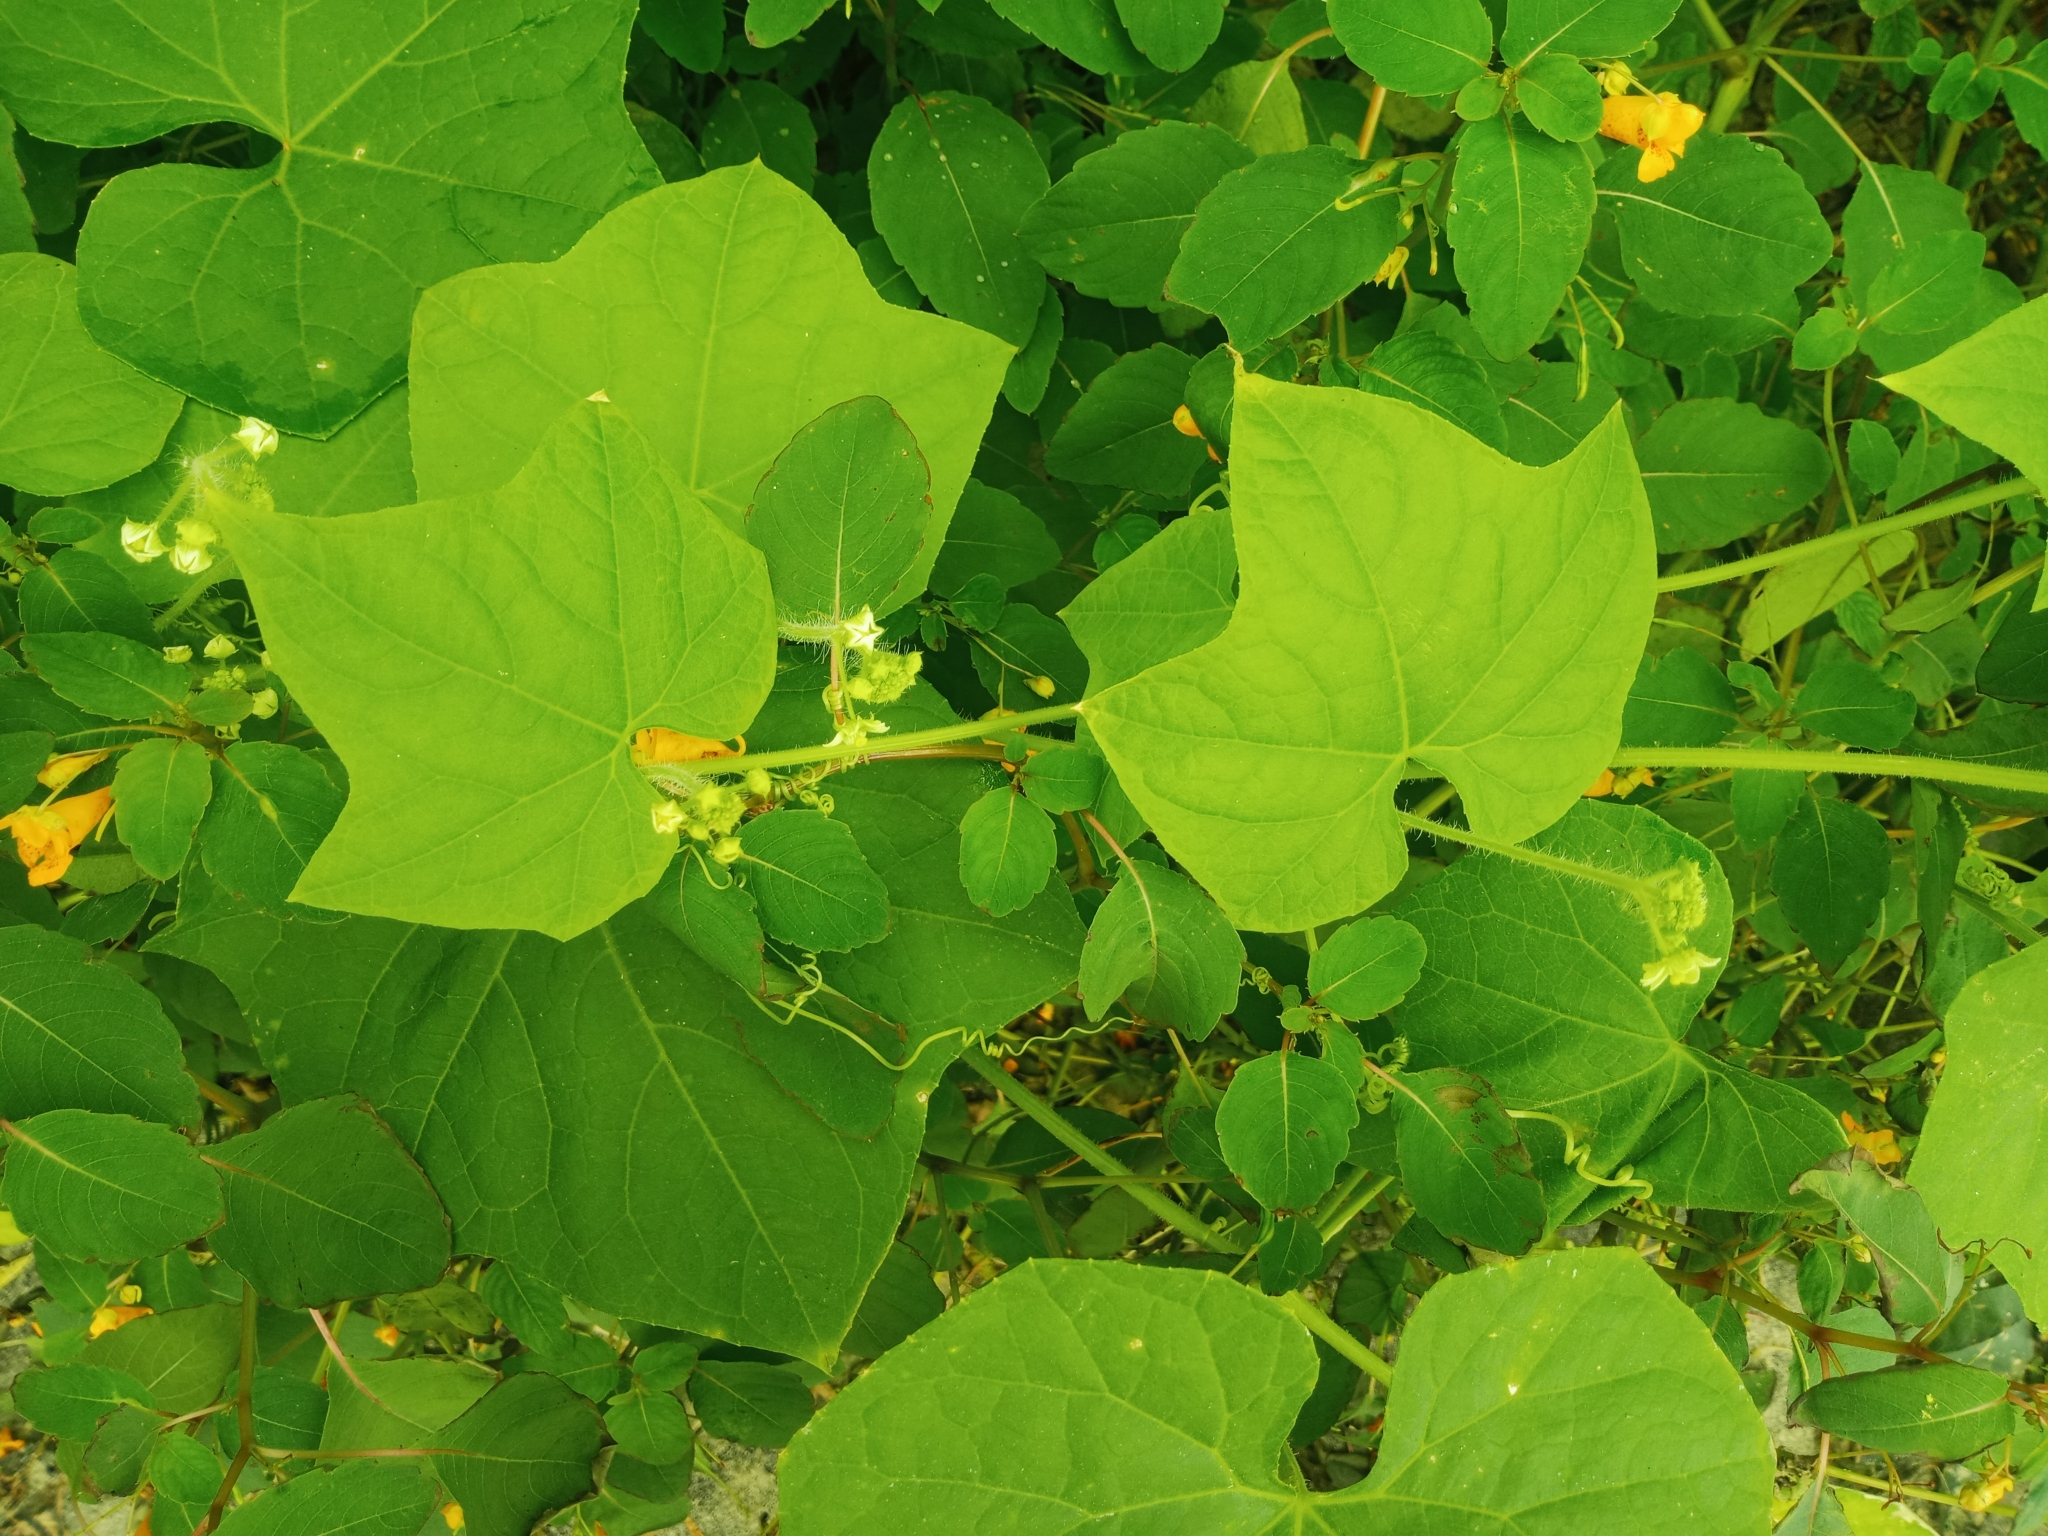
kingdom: Plantae
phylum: Tracheophyta
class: Magnoliopsida
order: Cucurbitales
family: Cucurbitaceae
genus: Sicyos
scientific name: Sicyos angulatus
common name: Angled burr cucumber
